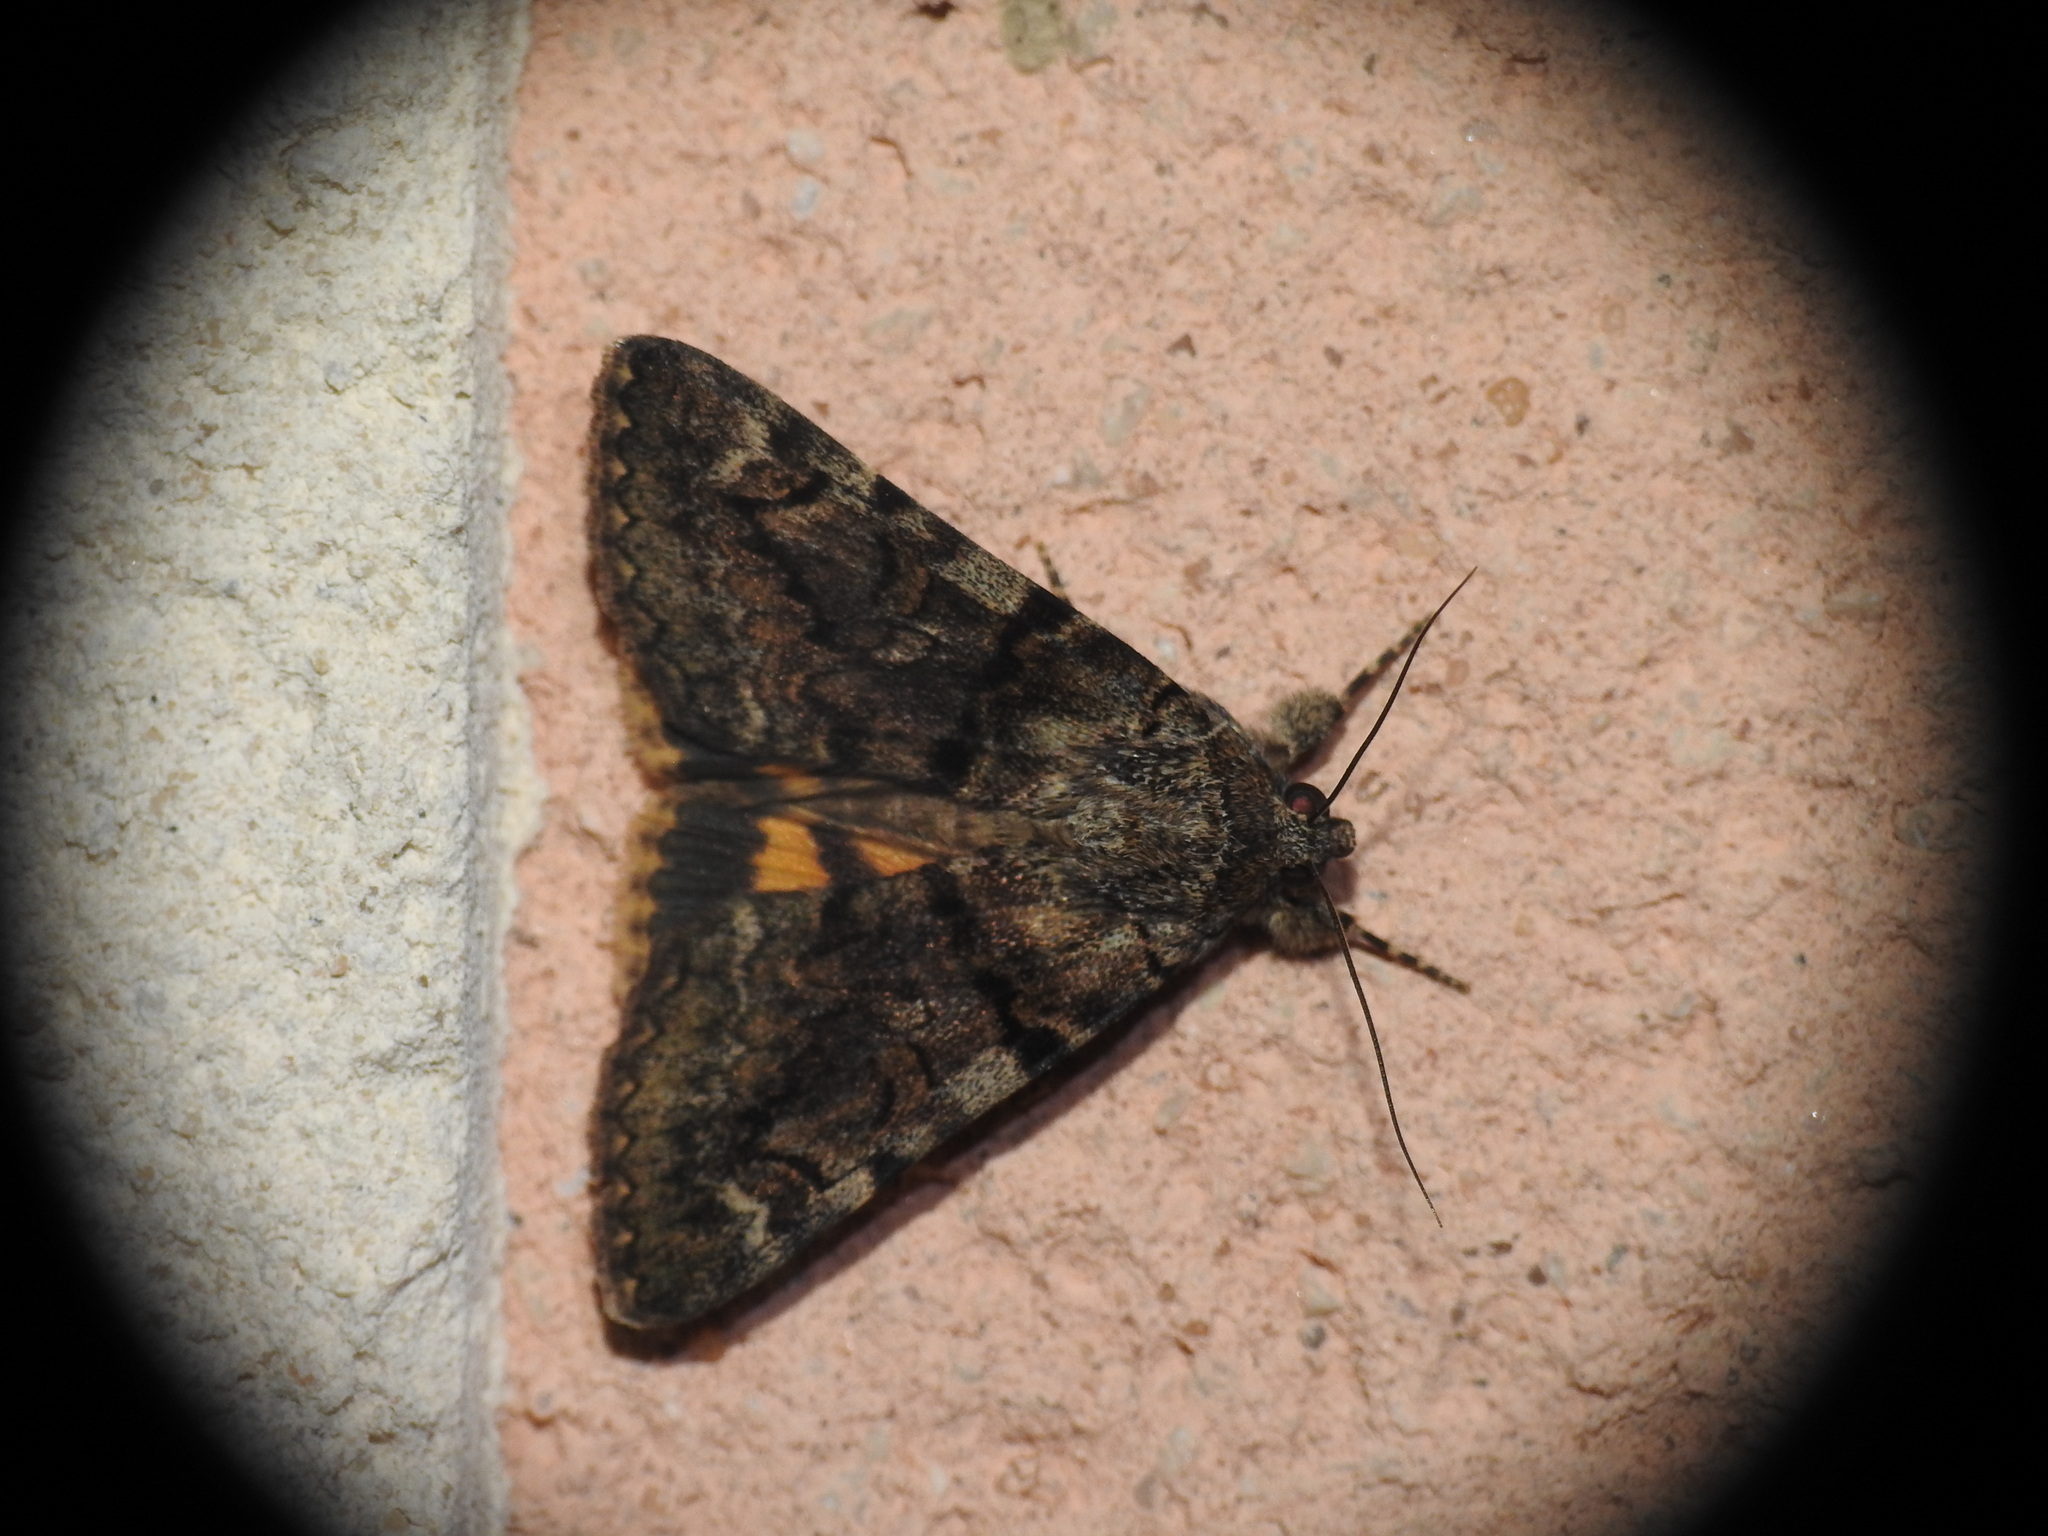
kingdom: Animalia
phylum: Arthropoda
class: Insecta
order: Lepidoptera
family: Erebidae
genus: Catocala
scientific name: Catocala nymphagoga
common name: Oak yellow underwing
